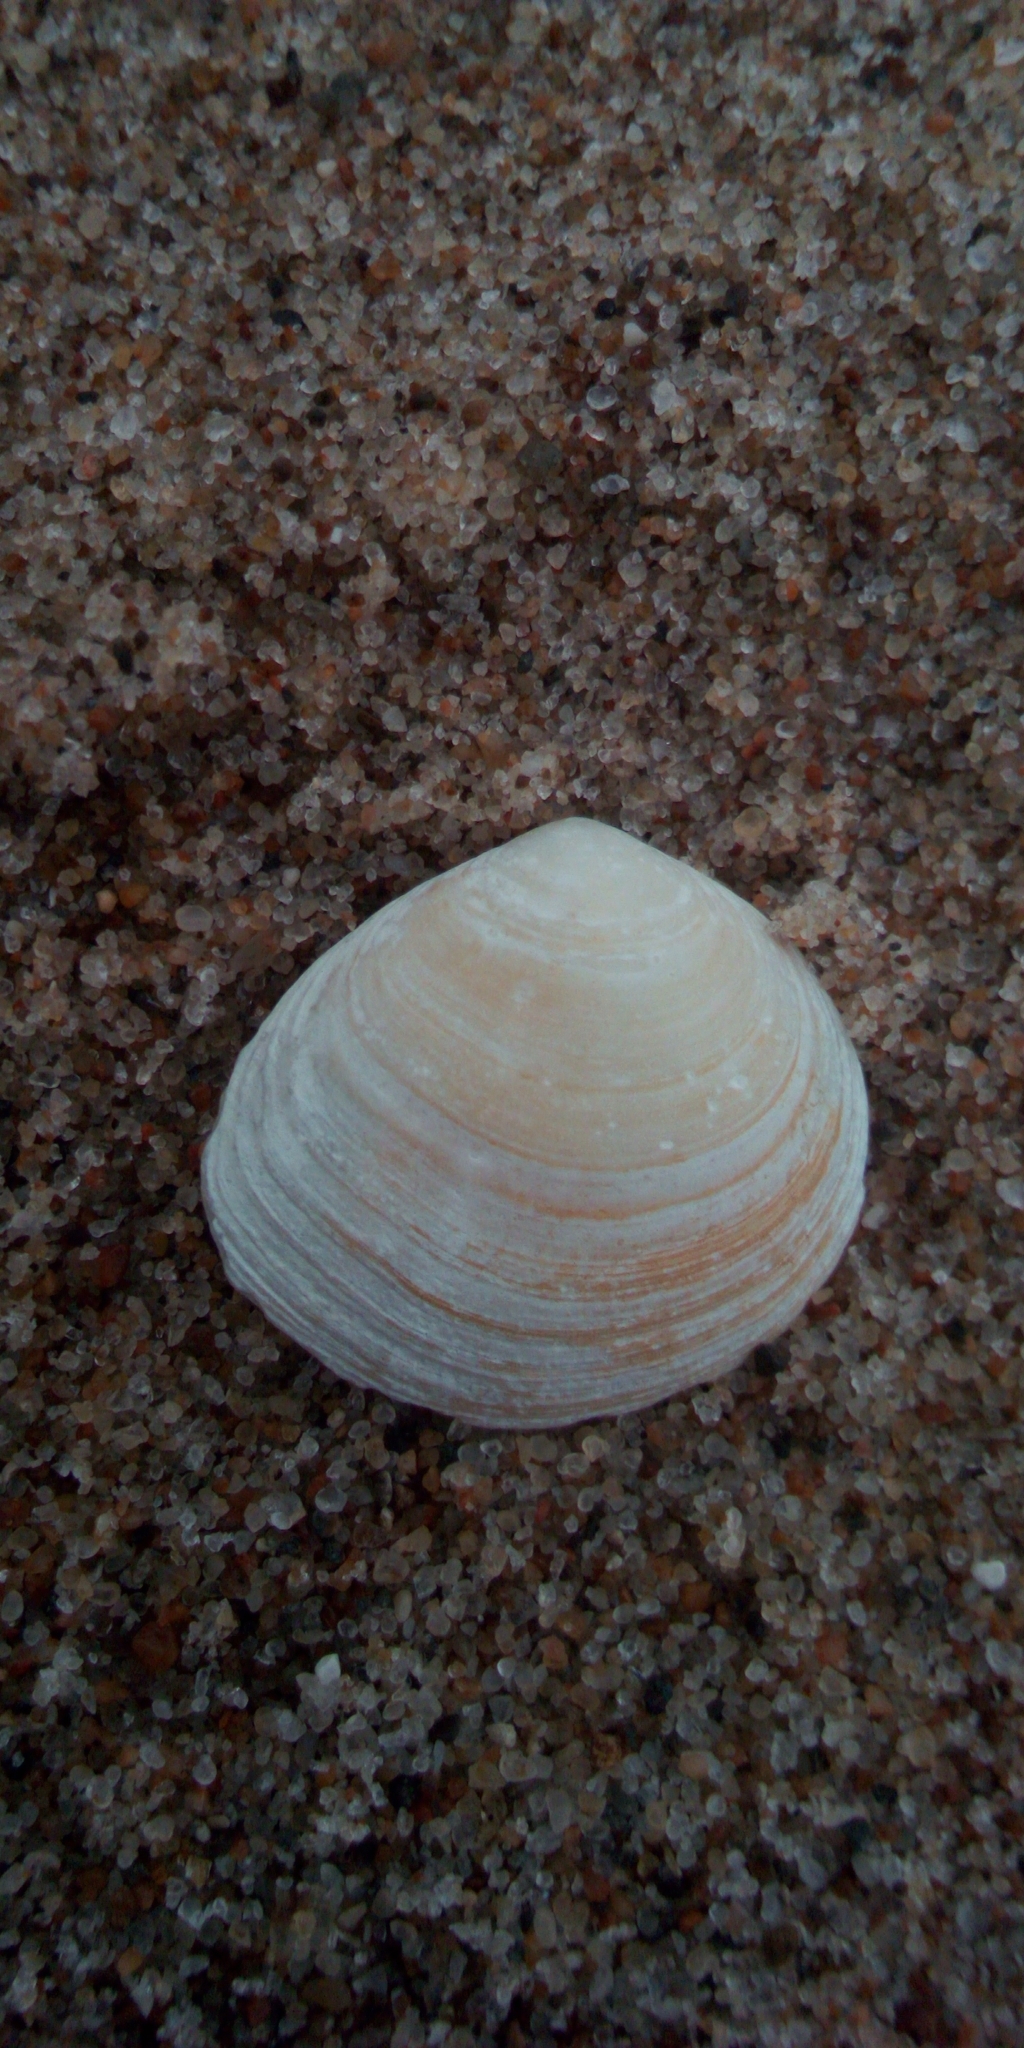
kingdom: Animalia
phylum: Mollusca
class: Bivalvia
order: Cardiida
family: Tellinidae
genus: Macoma
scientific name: Macoma balthica
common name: Baltic tellin
